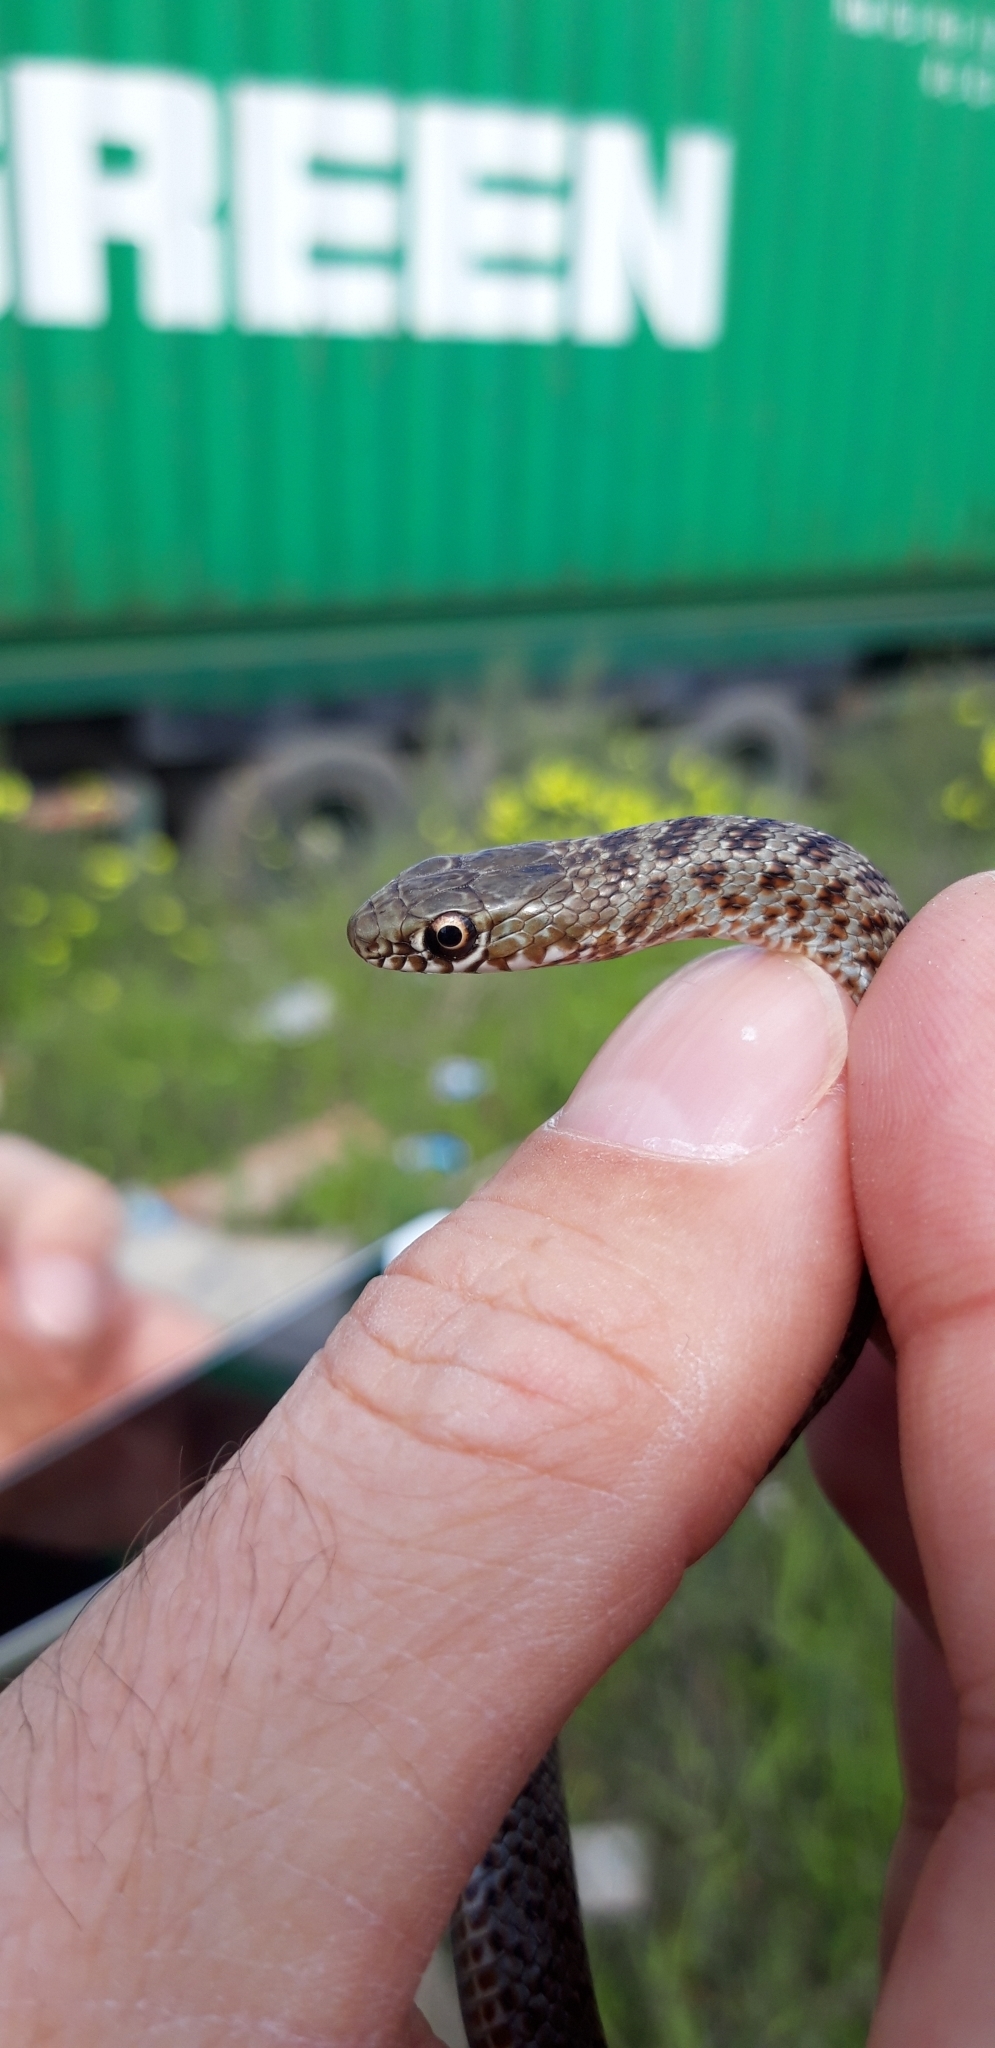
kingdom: Animalia
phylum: Chordata
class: Squamata
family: Colubridae
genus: Dolichophis
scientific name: Dolichophis jugularis
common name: Large whip snake
